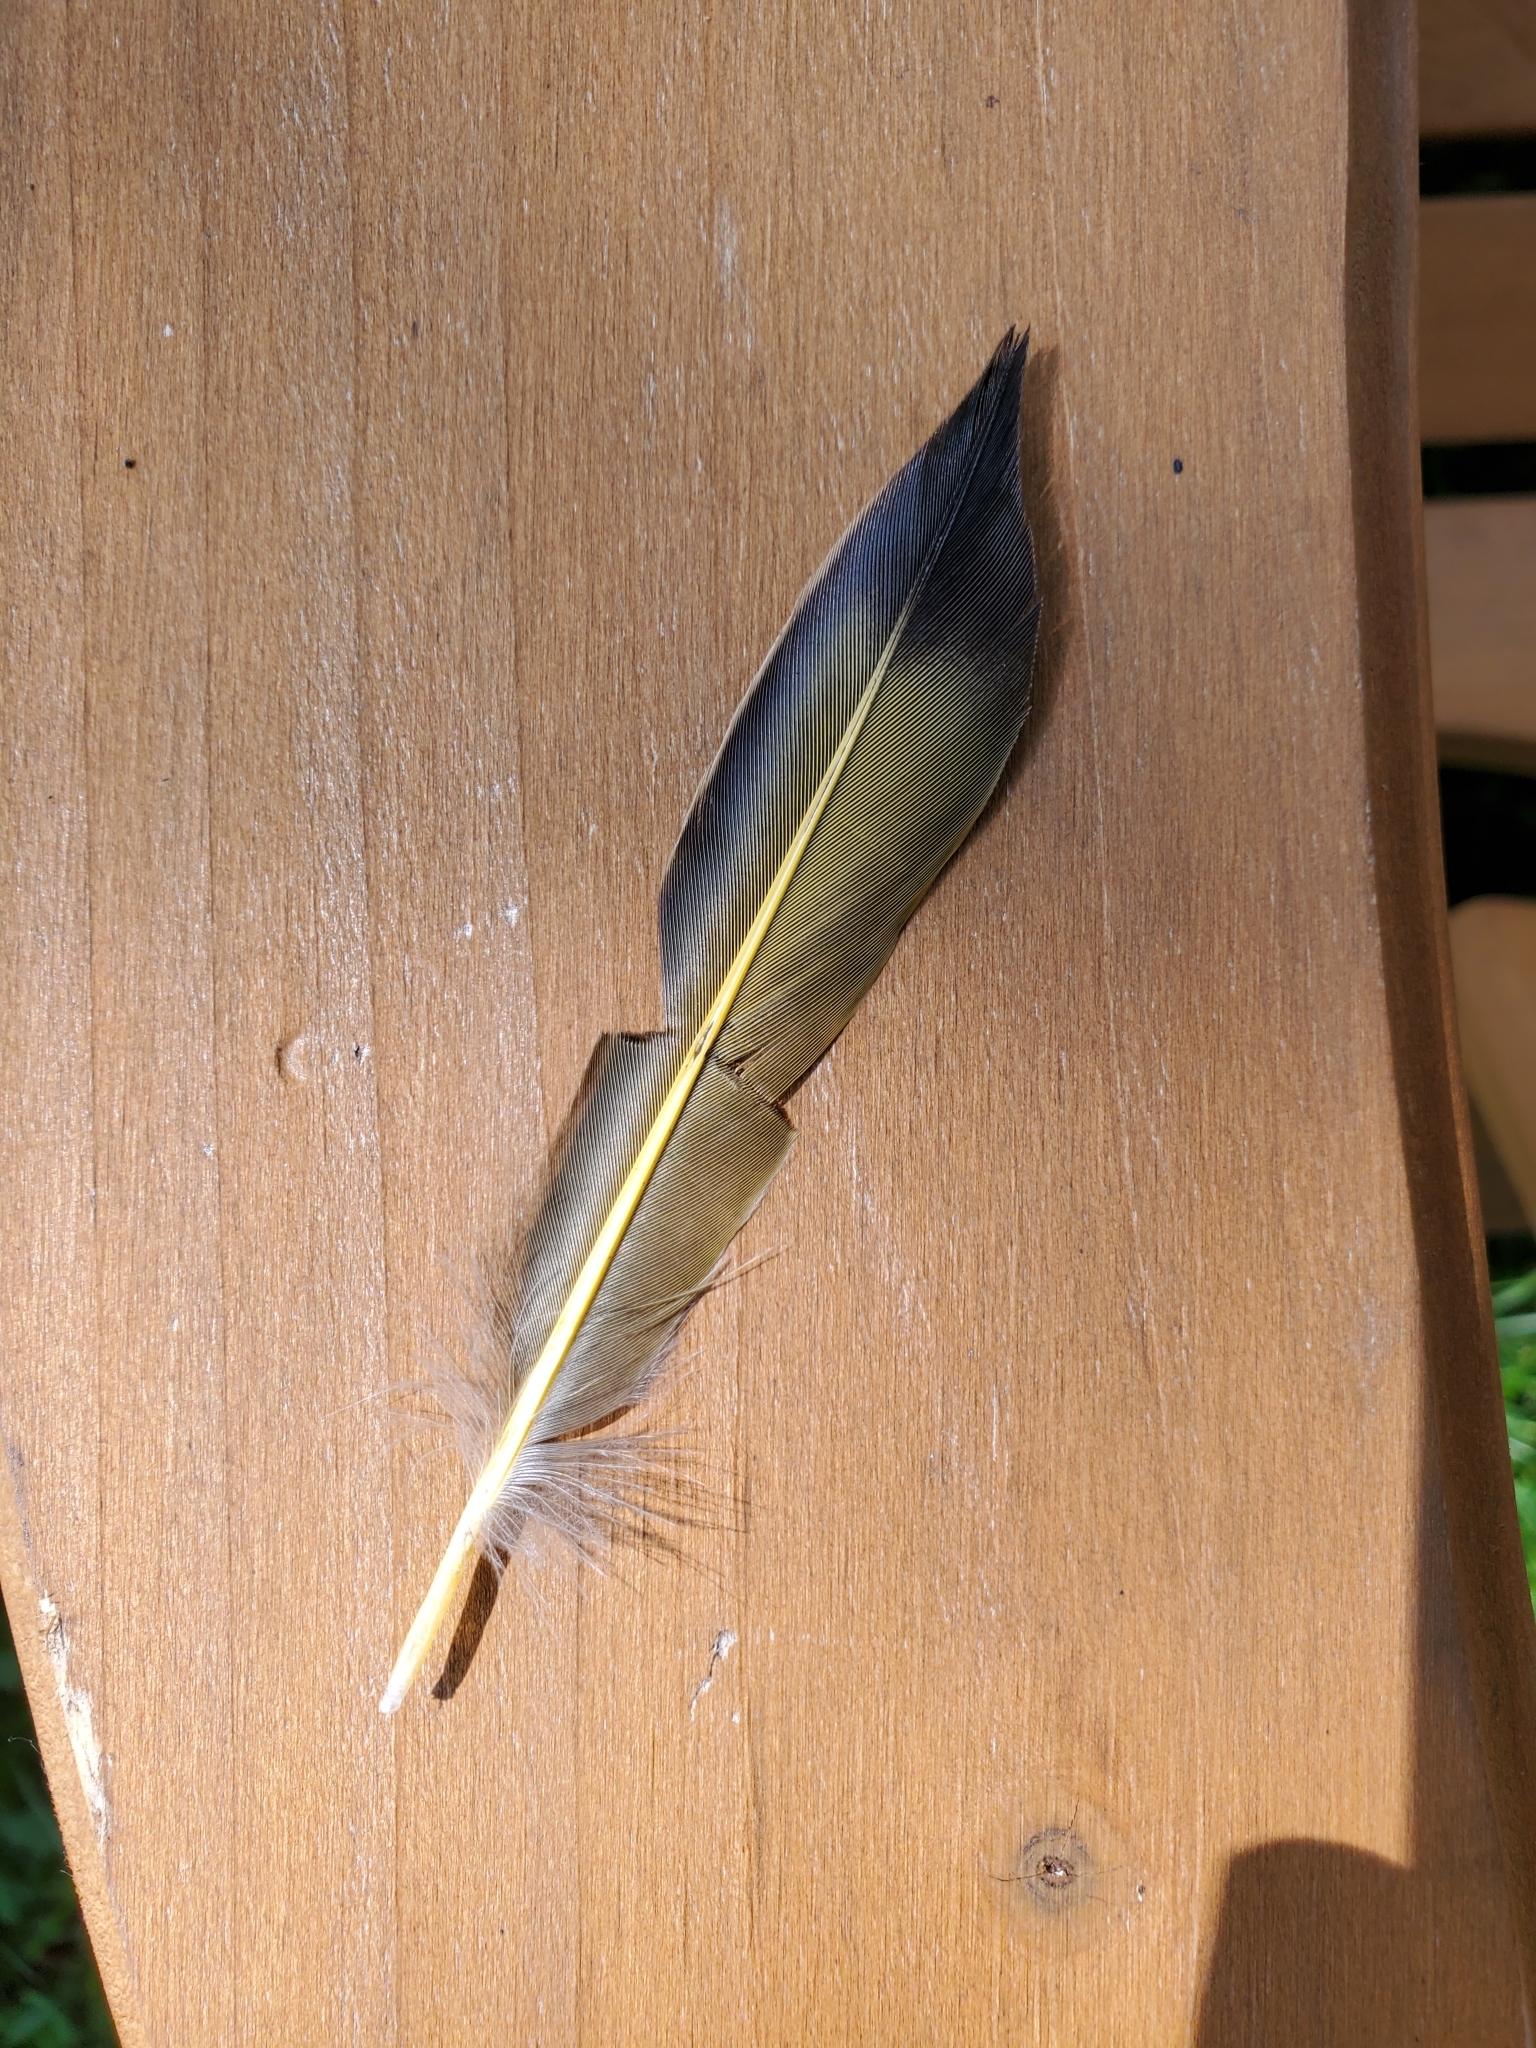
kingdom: Animalia
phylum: Chordata
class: Aves
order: Piciformes
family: Picidae
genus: Colaptes
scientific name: Colaptes auratus
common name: Northern flicker
